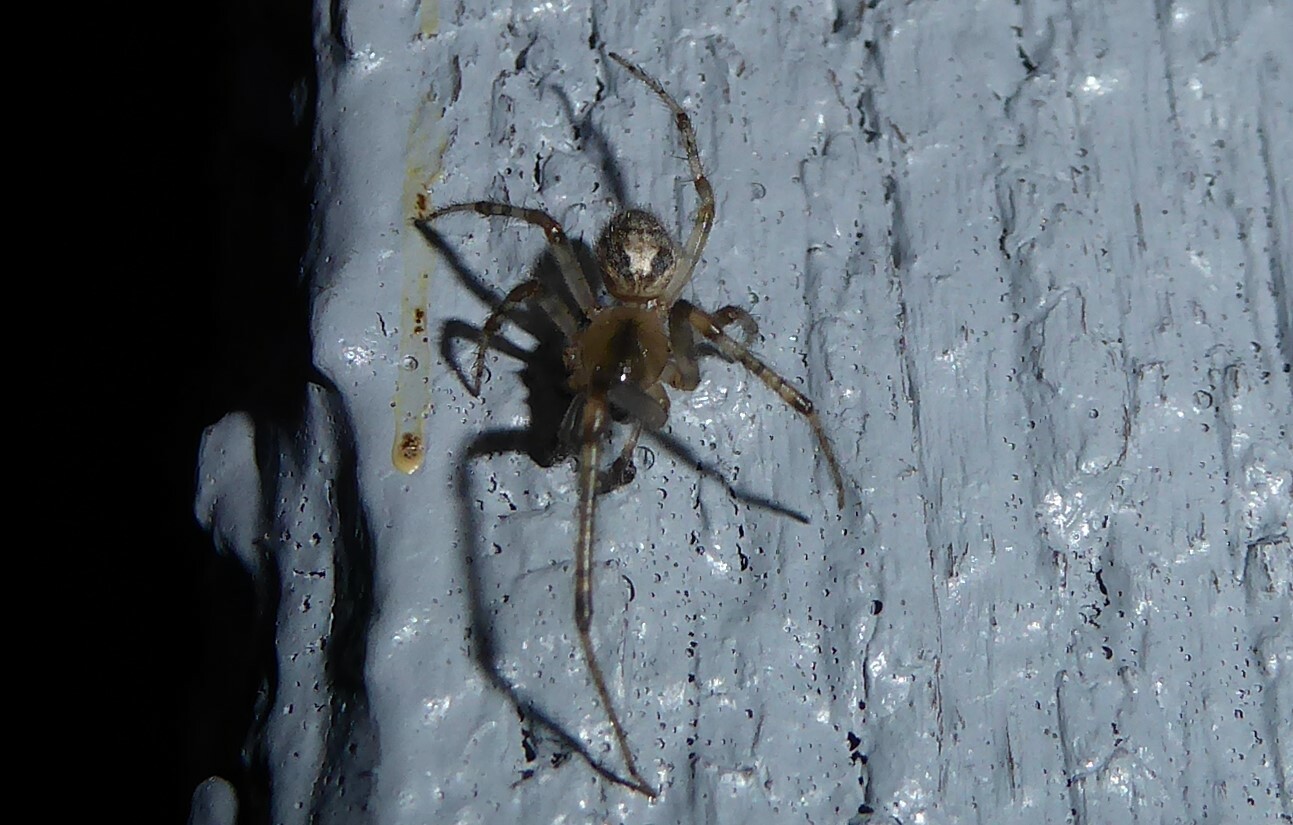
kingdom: Animalia
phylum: Arthropoda
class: Arachnida
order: Araneae
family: Araneidae
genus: Zygiella
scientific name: Zygiella x-notata
